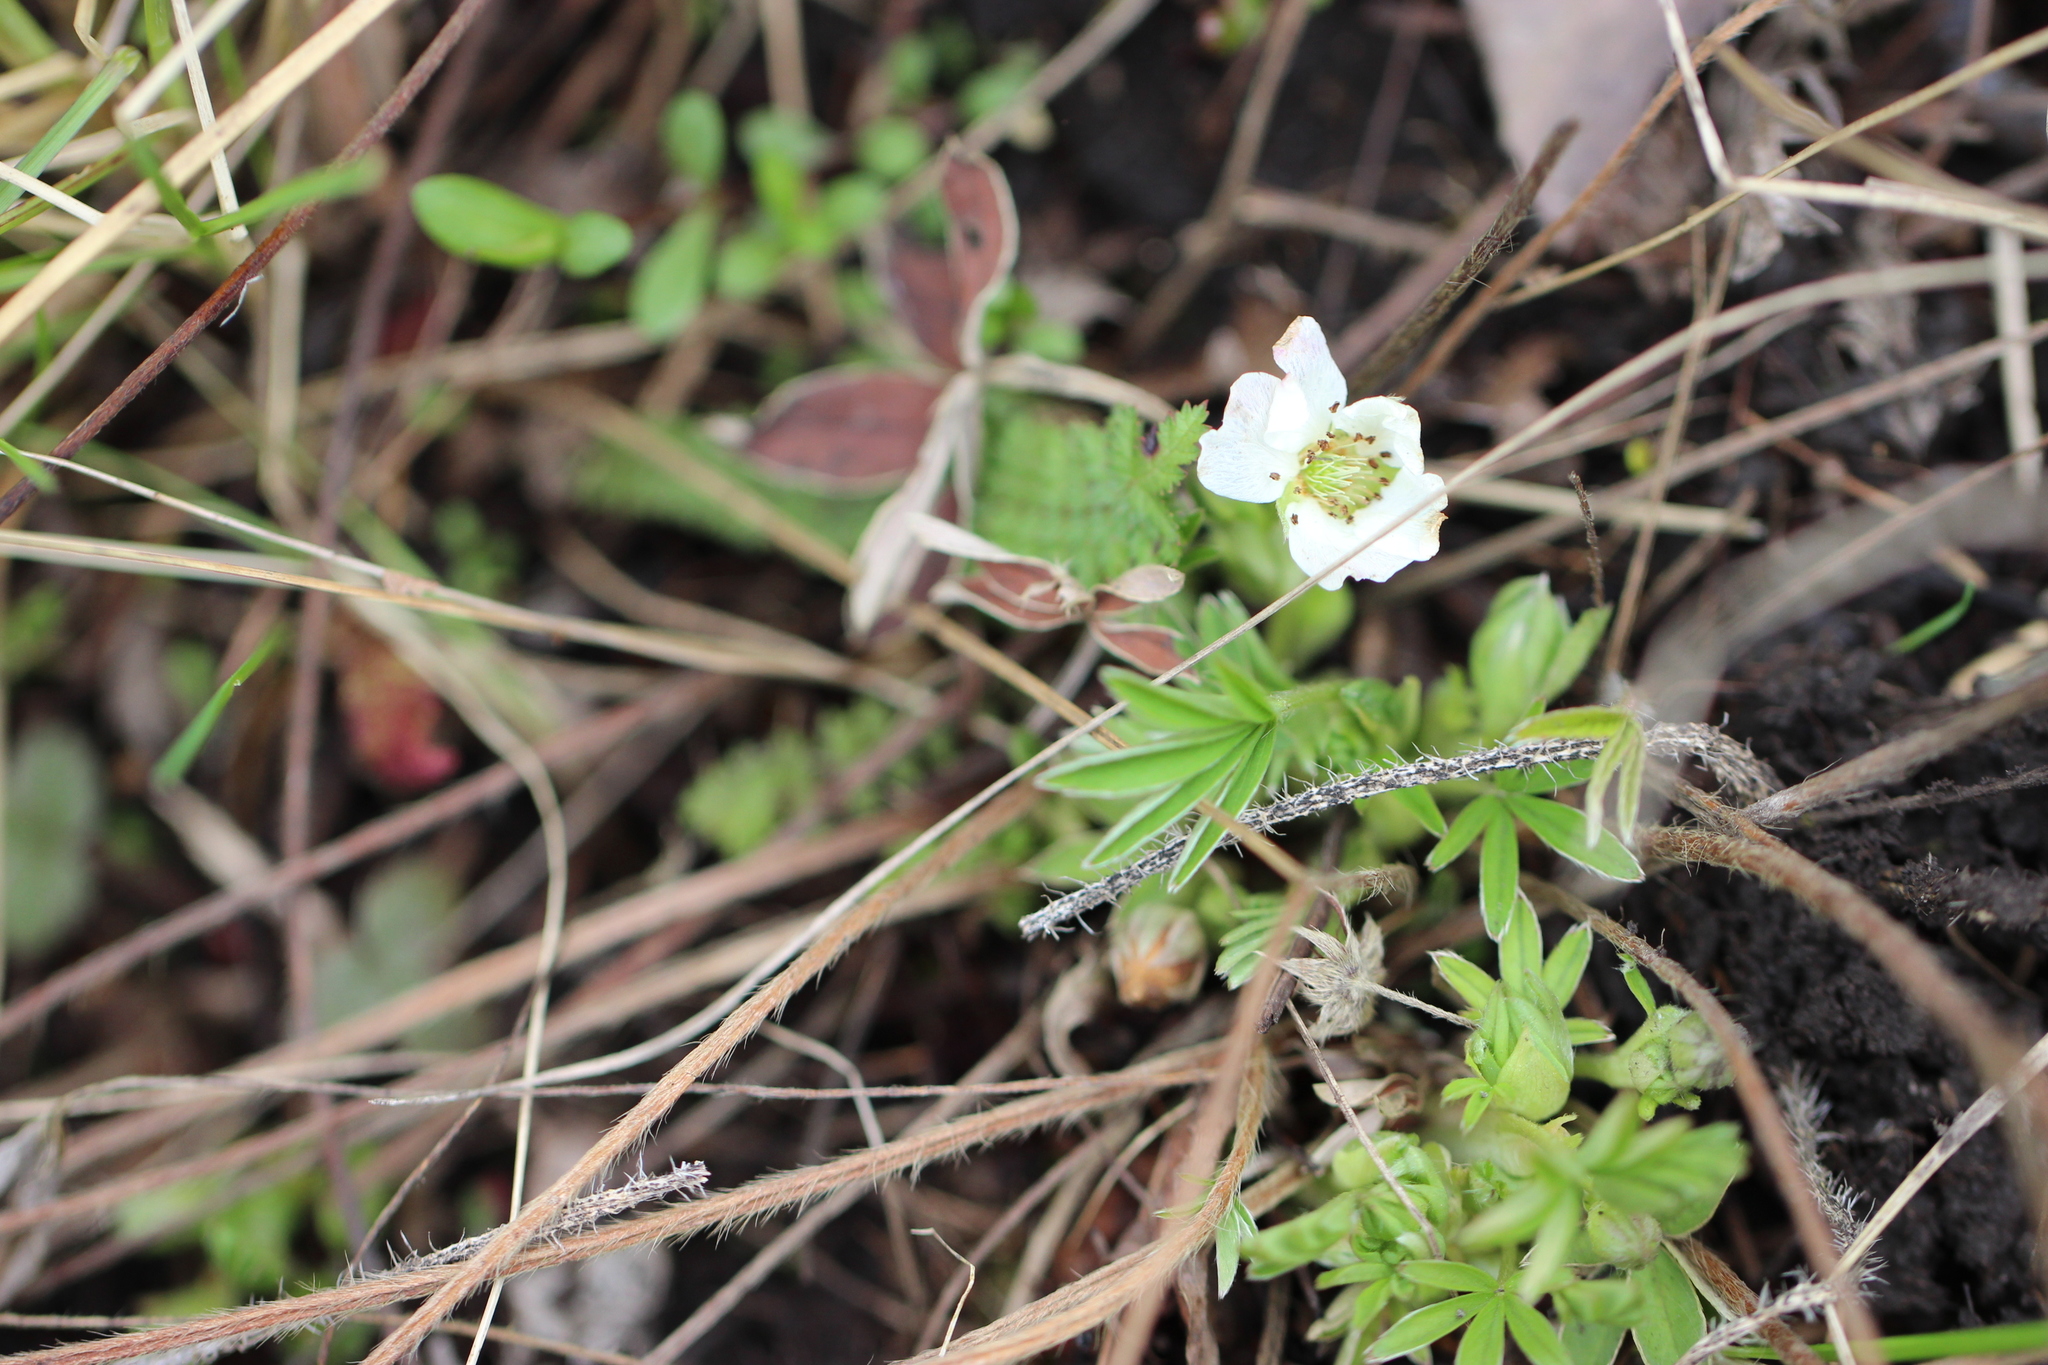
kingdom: Plantae
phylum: Tracheophyta
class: Magnoliopsida
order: Rosales
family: Rosaceae
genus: Potentilla
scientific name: Potentilla alba
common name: White cinquefoil
